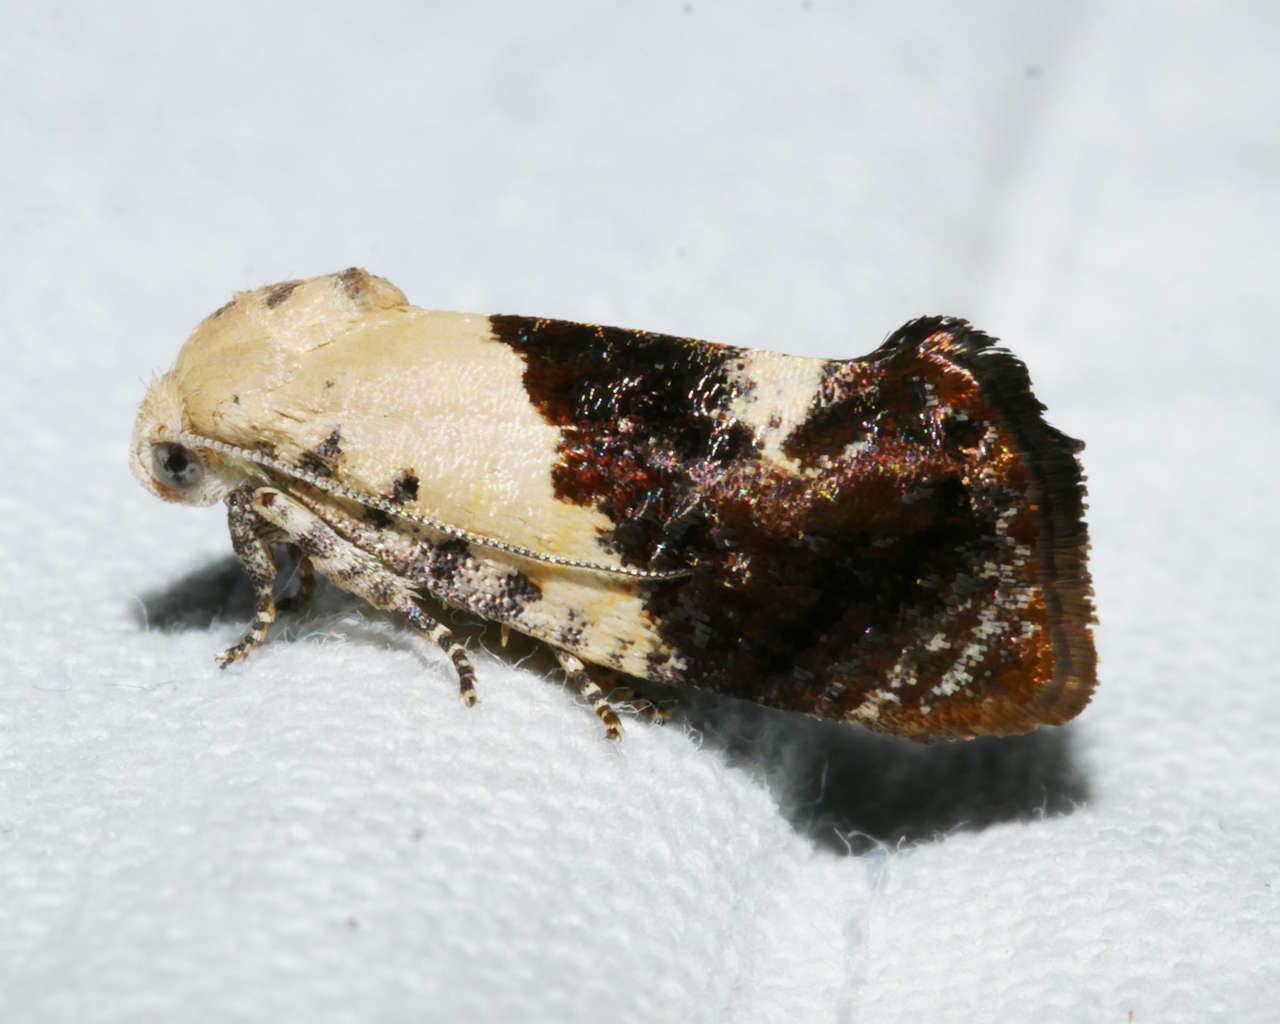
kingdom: Animalia
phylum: Arthropoda
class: Insecta
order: Lepidoptera
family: Depressariidae
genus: Hypertropha
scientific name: Hypertropha chlaenota
